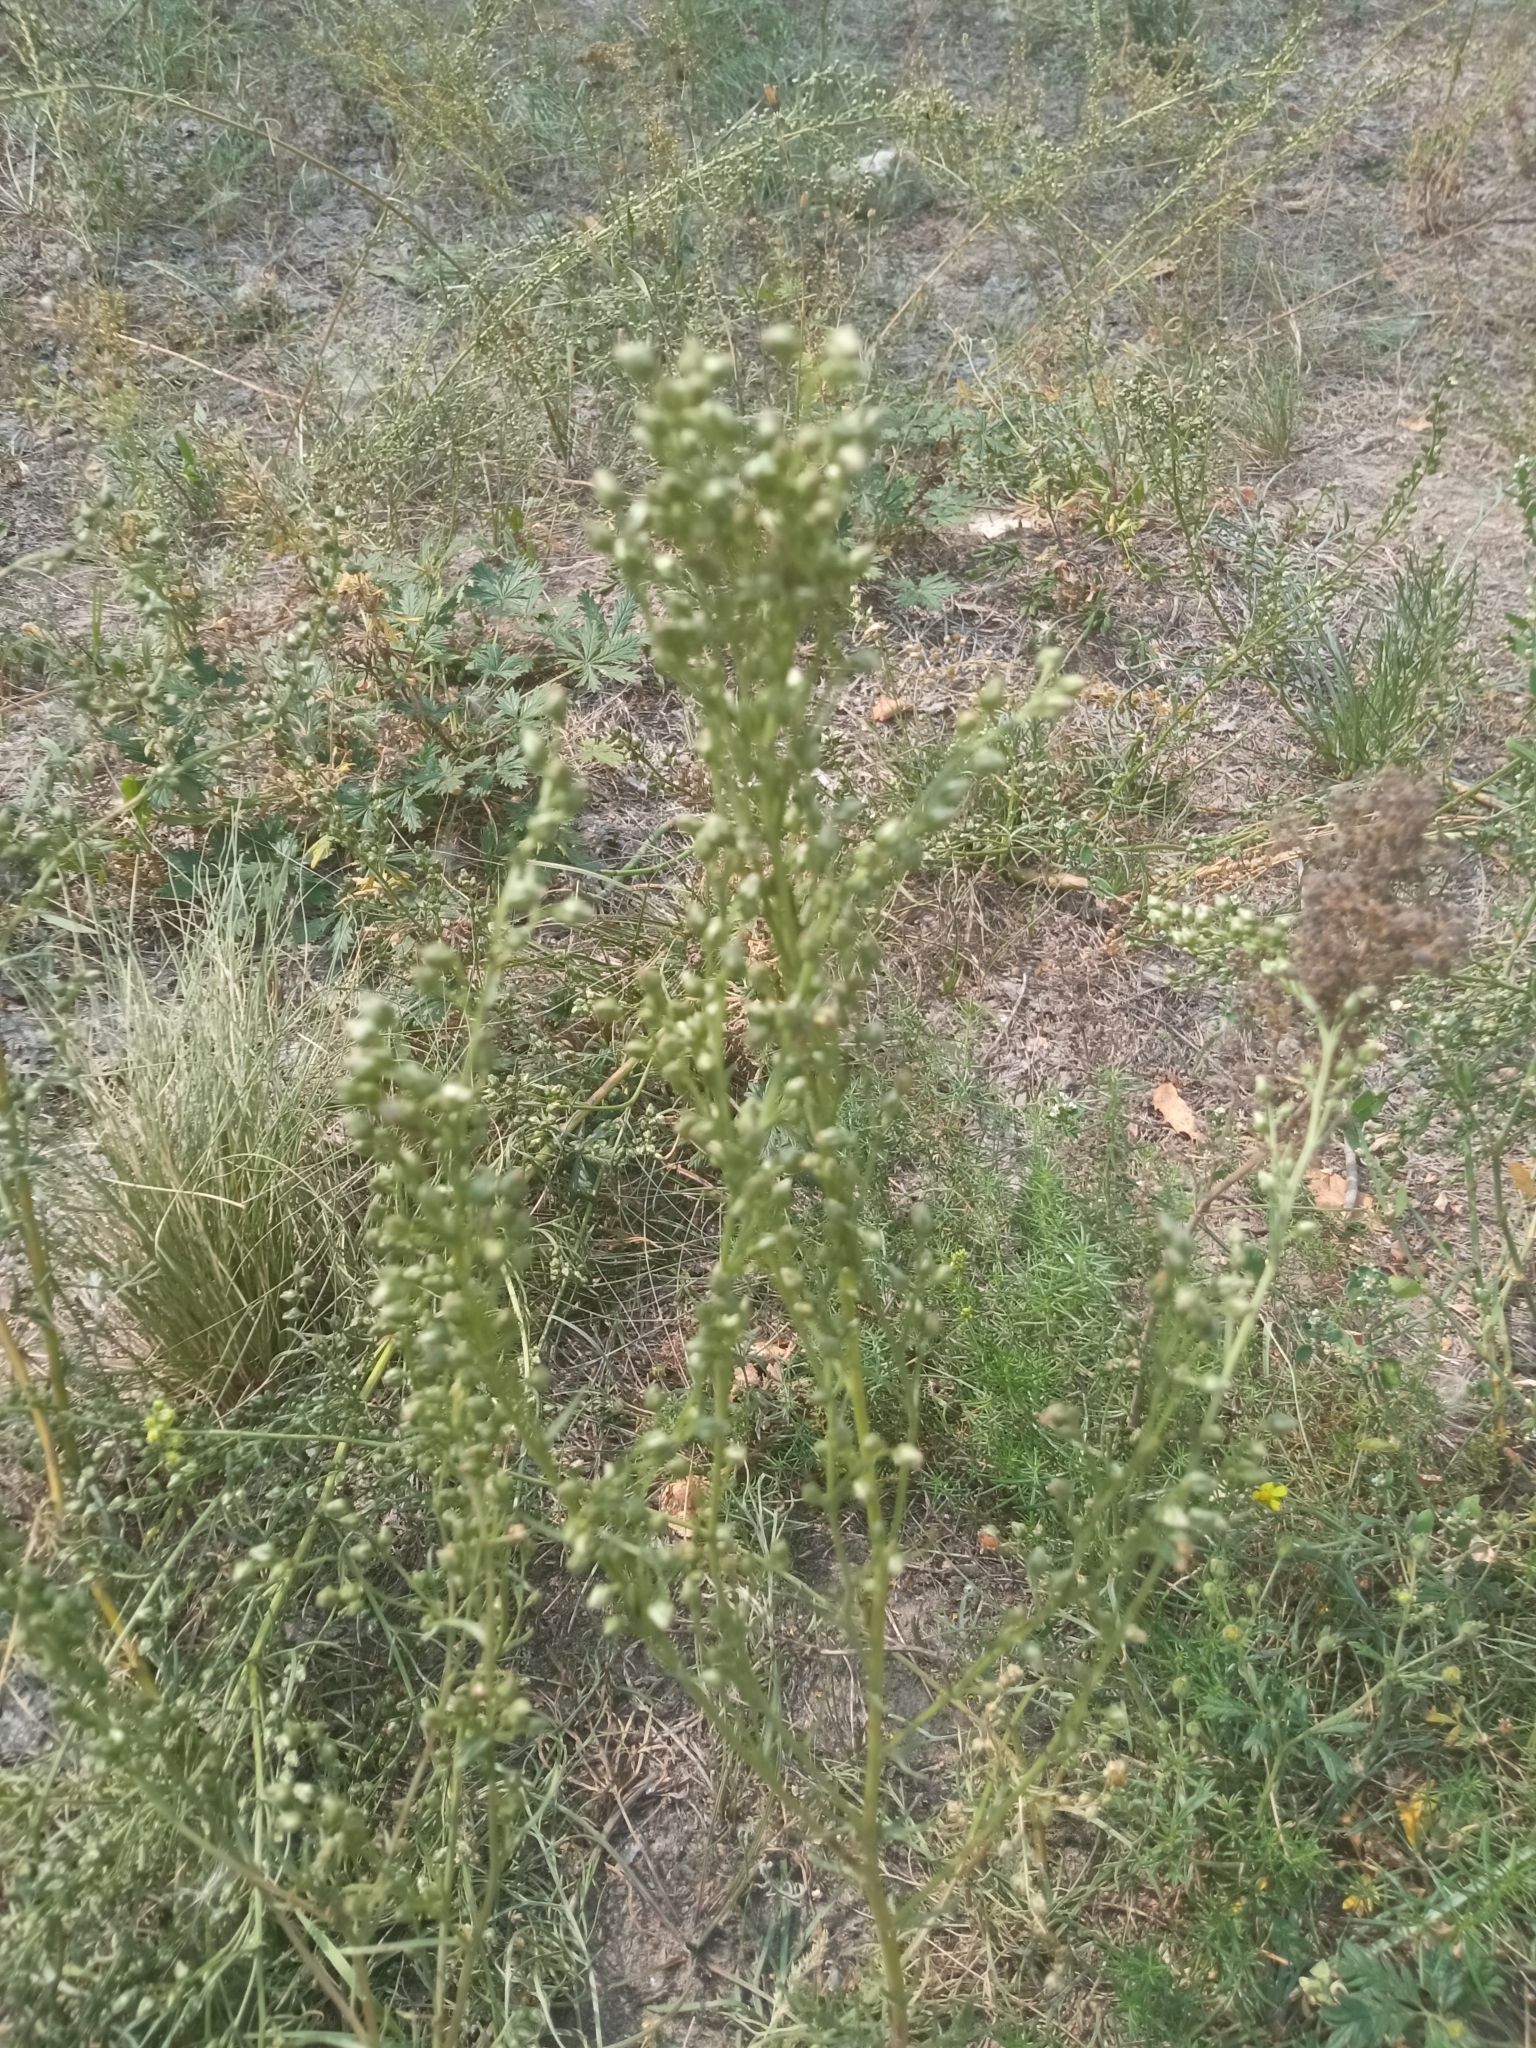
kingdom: Plantae
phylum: Tracheophyta
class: Magnoliopsida
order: Asterales
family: Asteraceae
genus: Artemisia
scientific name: Artemisia campestris
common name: Field wormwood
